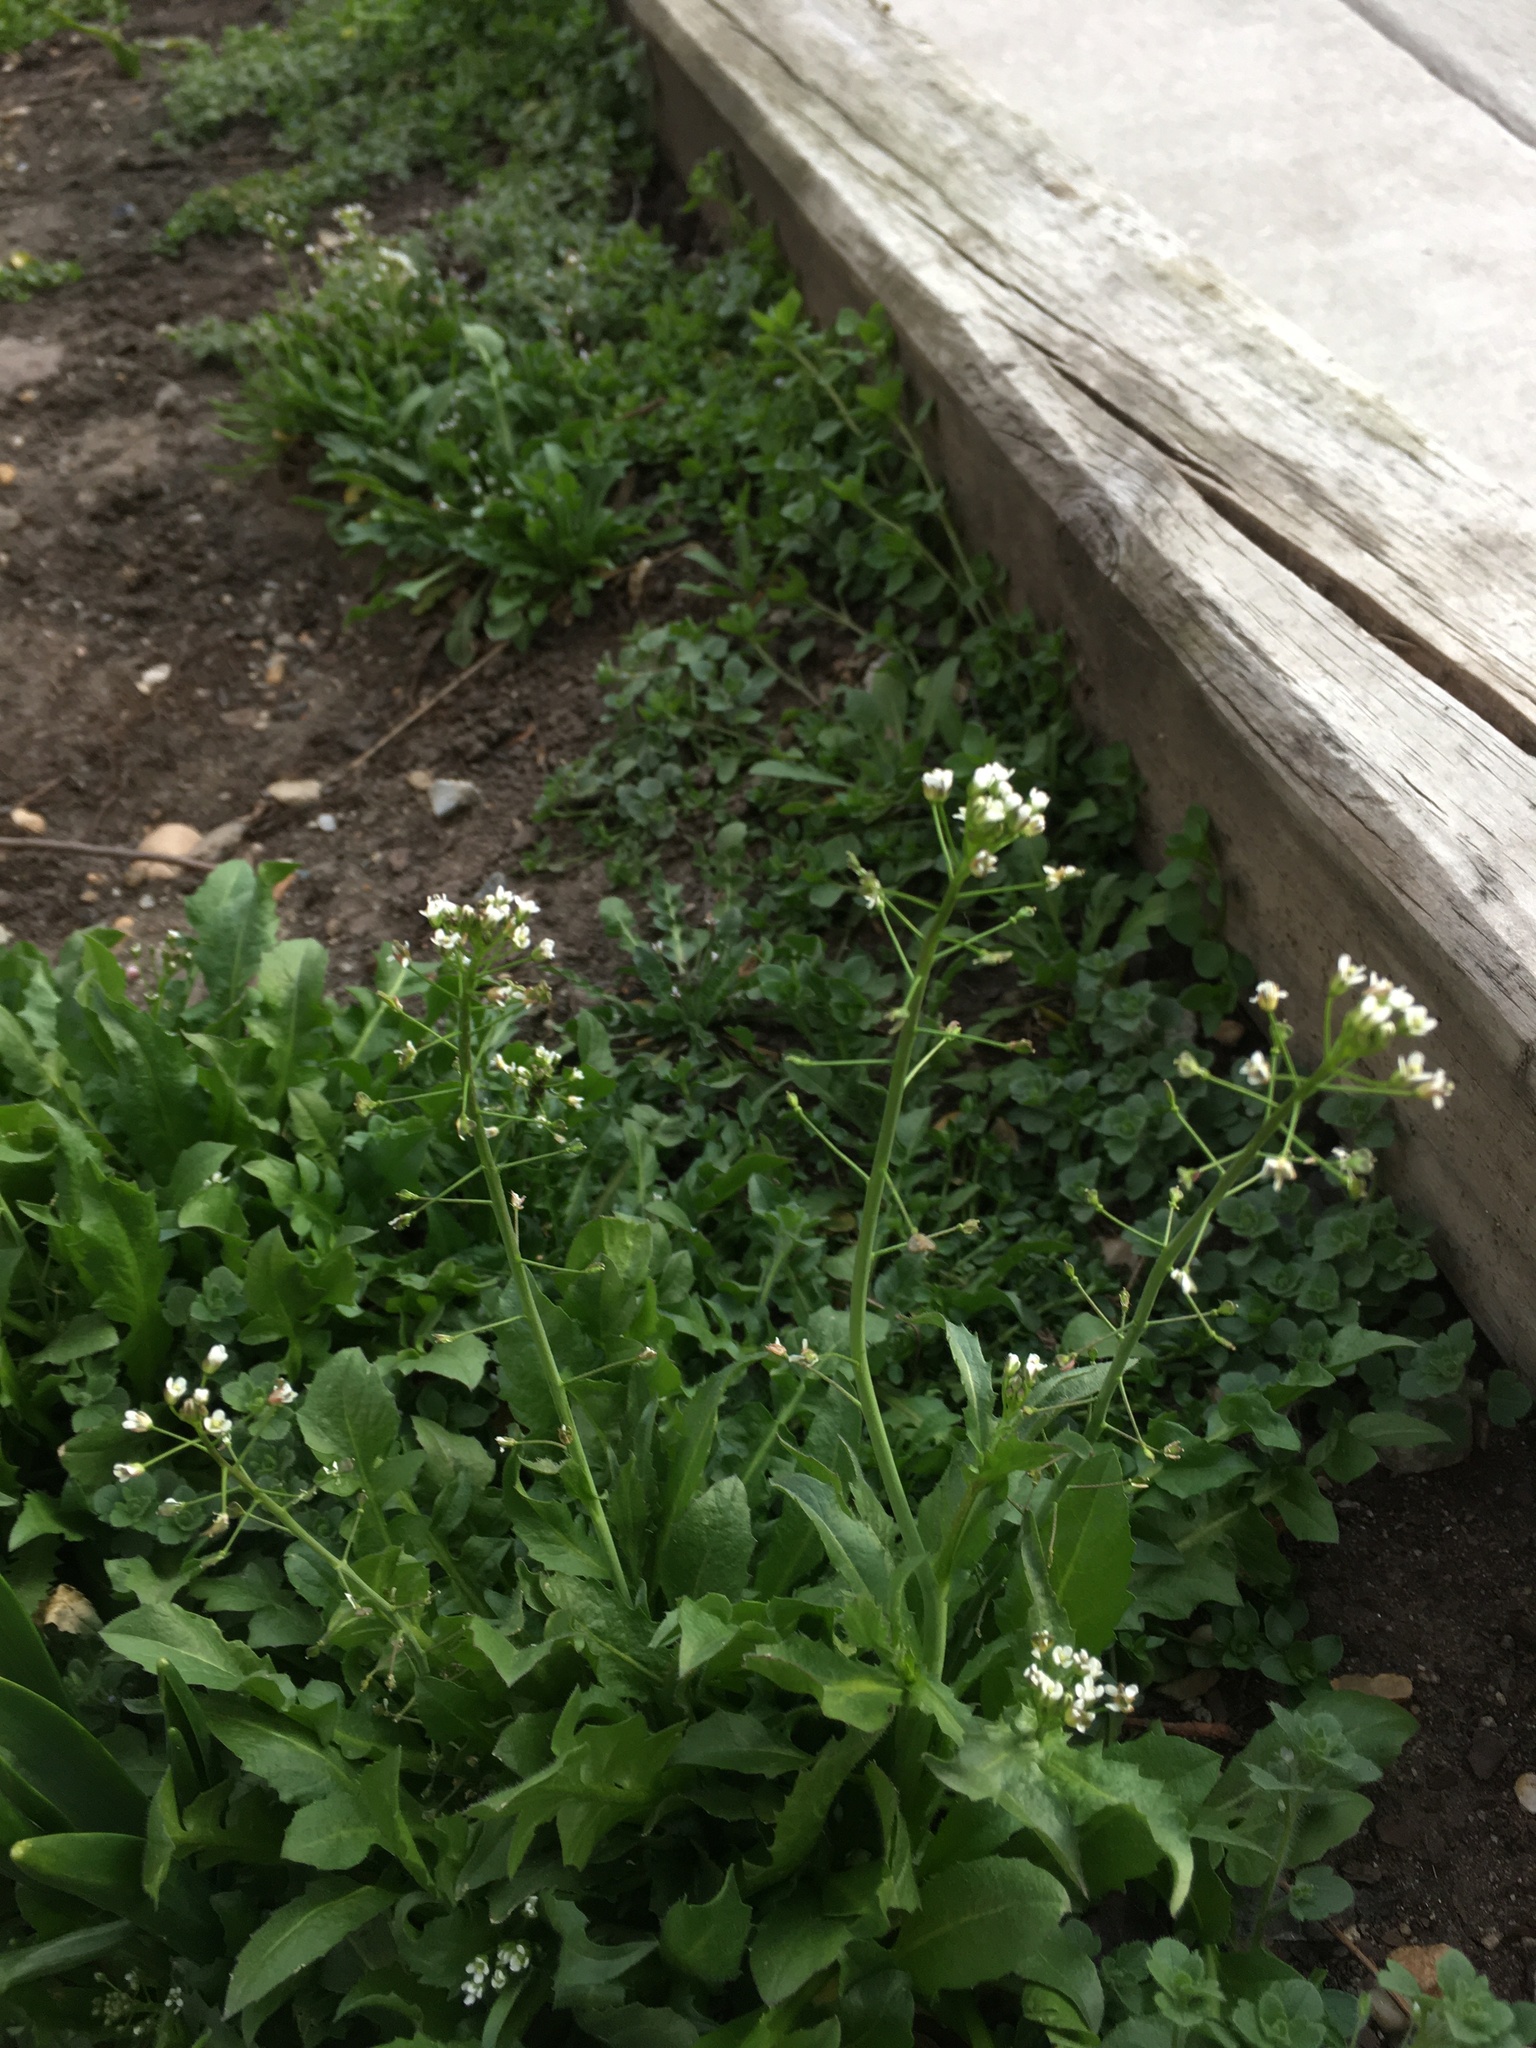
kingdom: Plantae
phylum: Tracheophyta
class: Magnoliopsida
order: Brassicales
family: Brassicaceae
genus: Capsella
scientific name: Capsella bursa-pastoris
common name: Shepherd's purse
